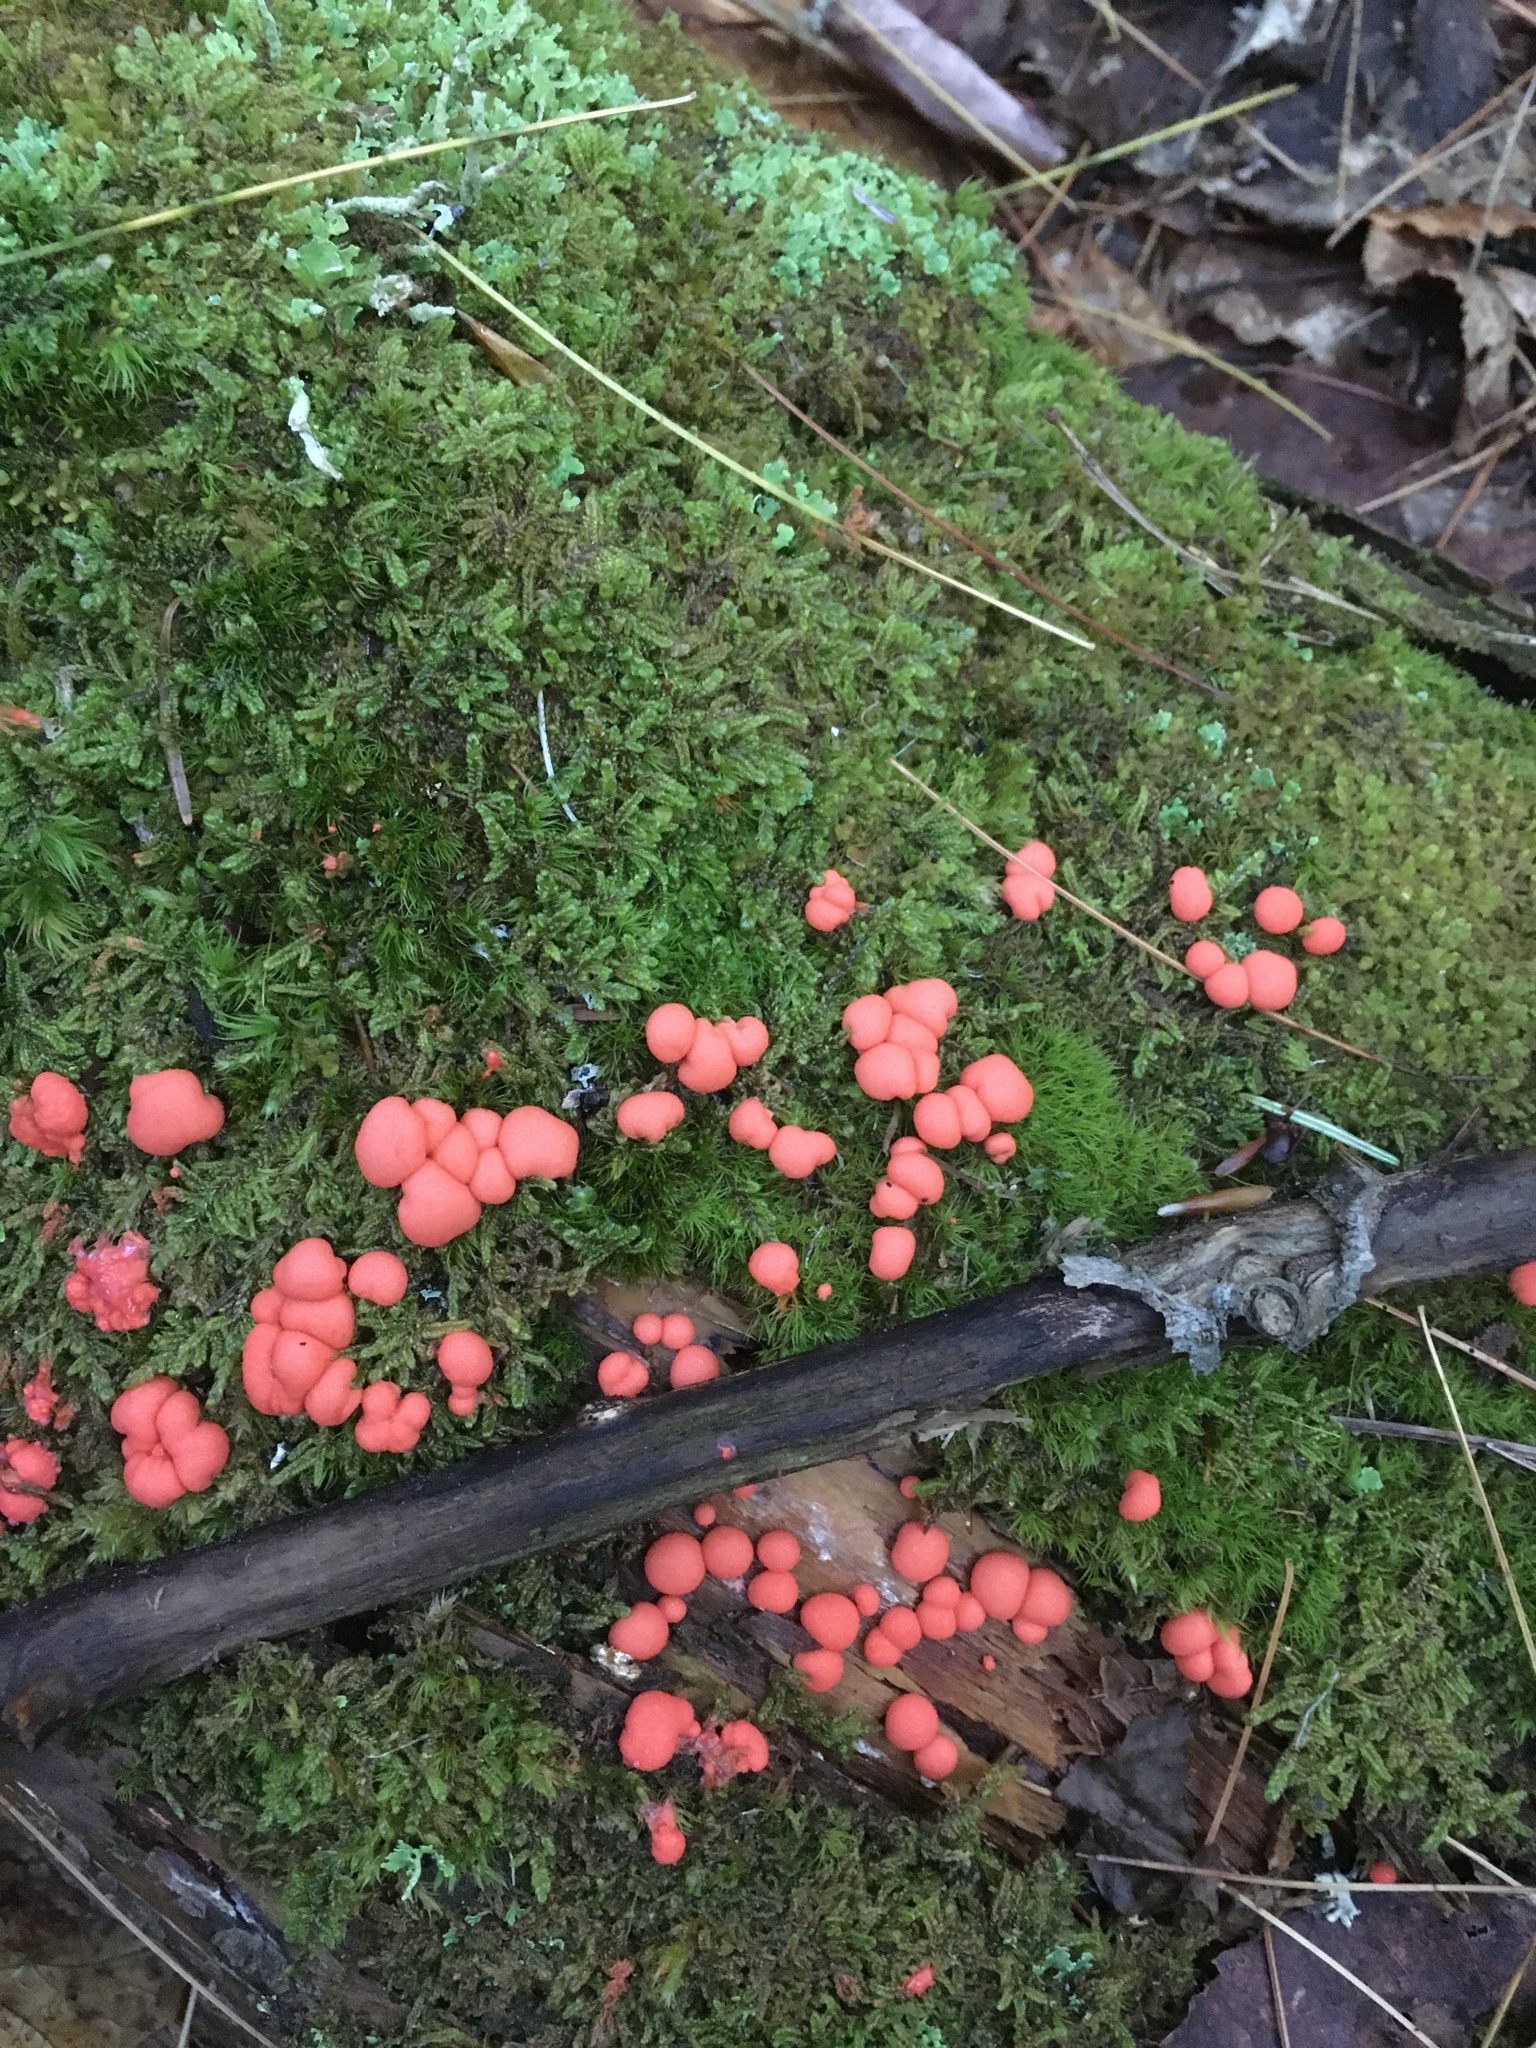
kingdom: Protozoa
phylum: Mycetozoa
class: Myxomycetes
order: Cribrariales
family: Tubiferaceae
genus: Lycogala
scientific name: Lycogala epidendrum
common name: Wolf's milk
